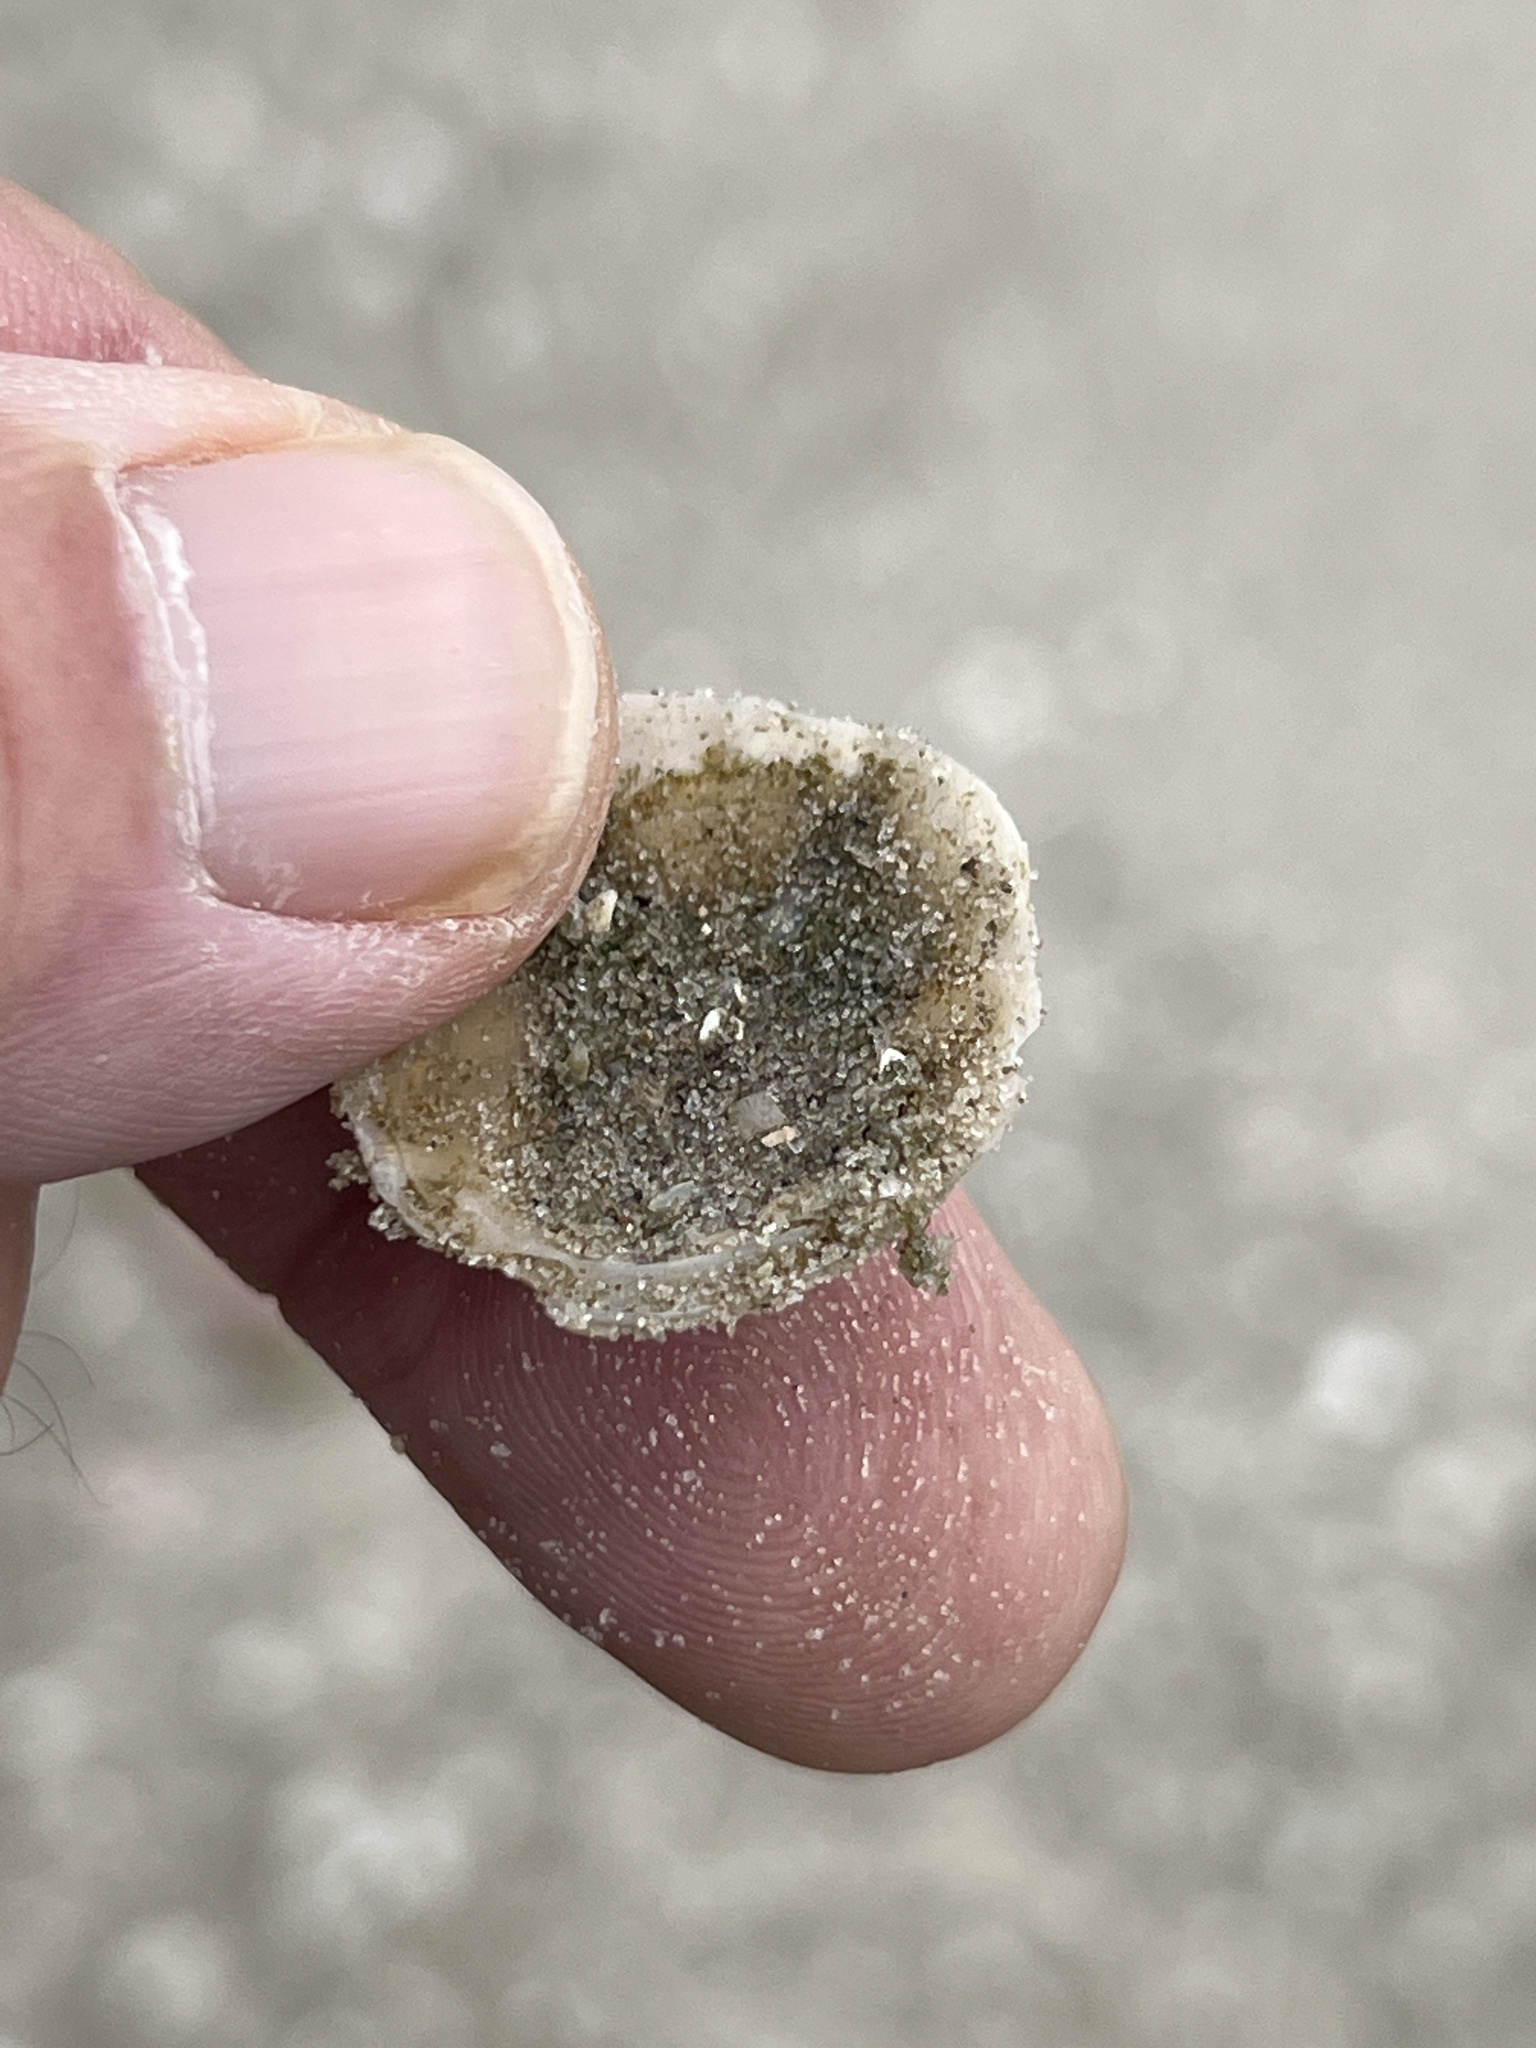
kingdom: Animalia
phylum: Mollusca
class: Bivalvia
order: Pectinida
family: Anomiidae
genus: Anomia
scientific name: Anomia simplex
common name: Common jingle shell
